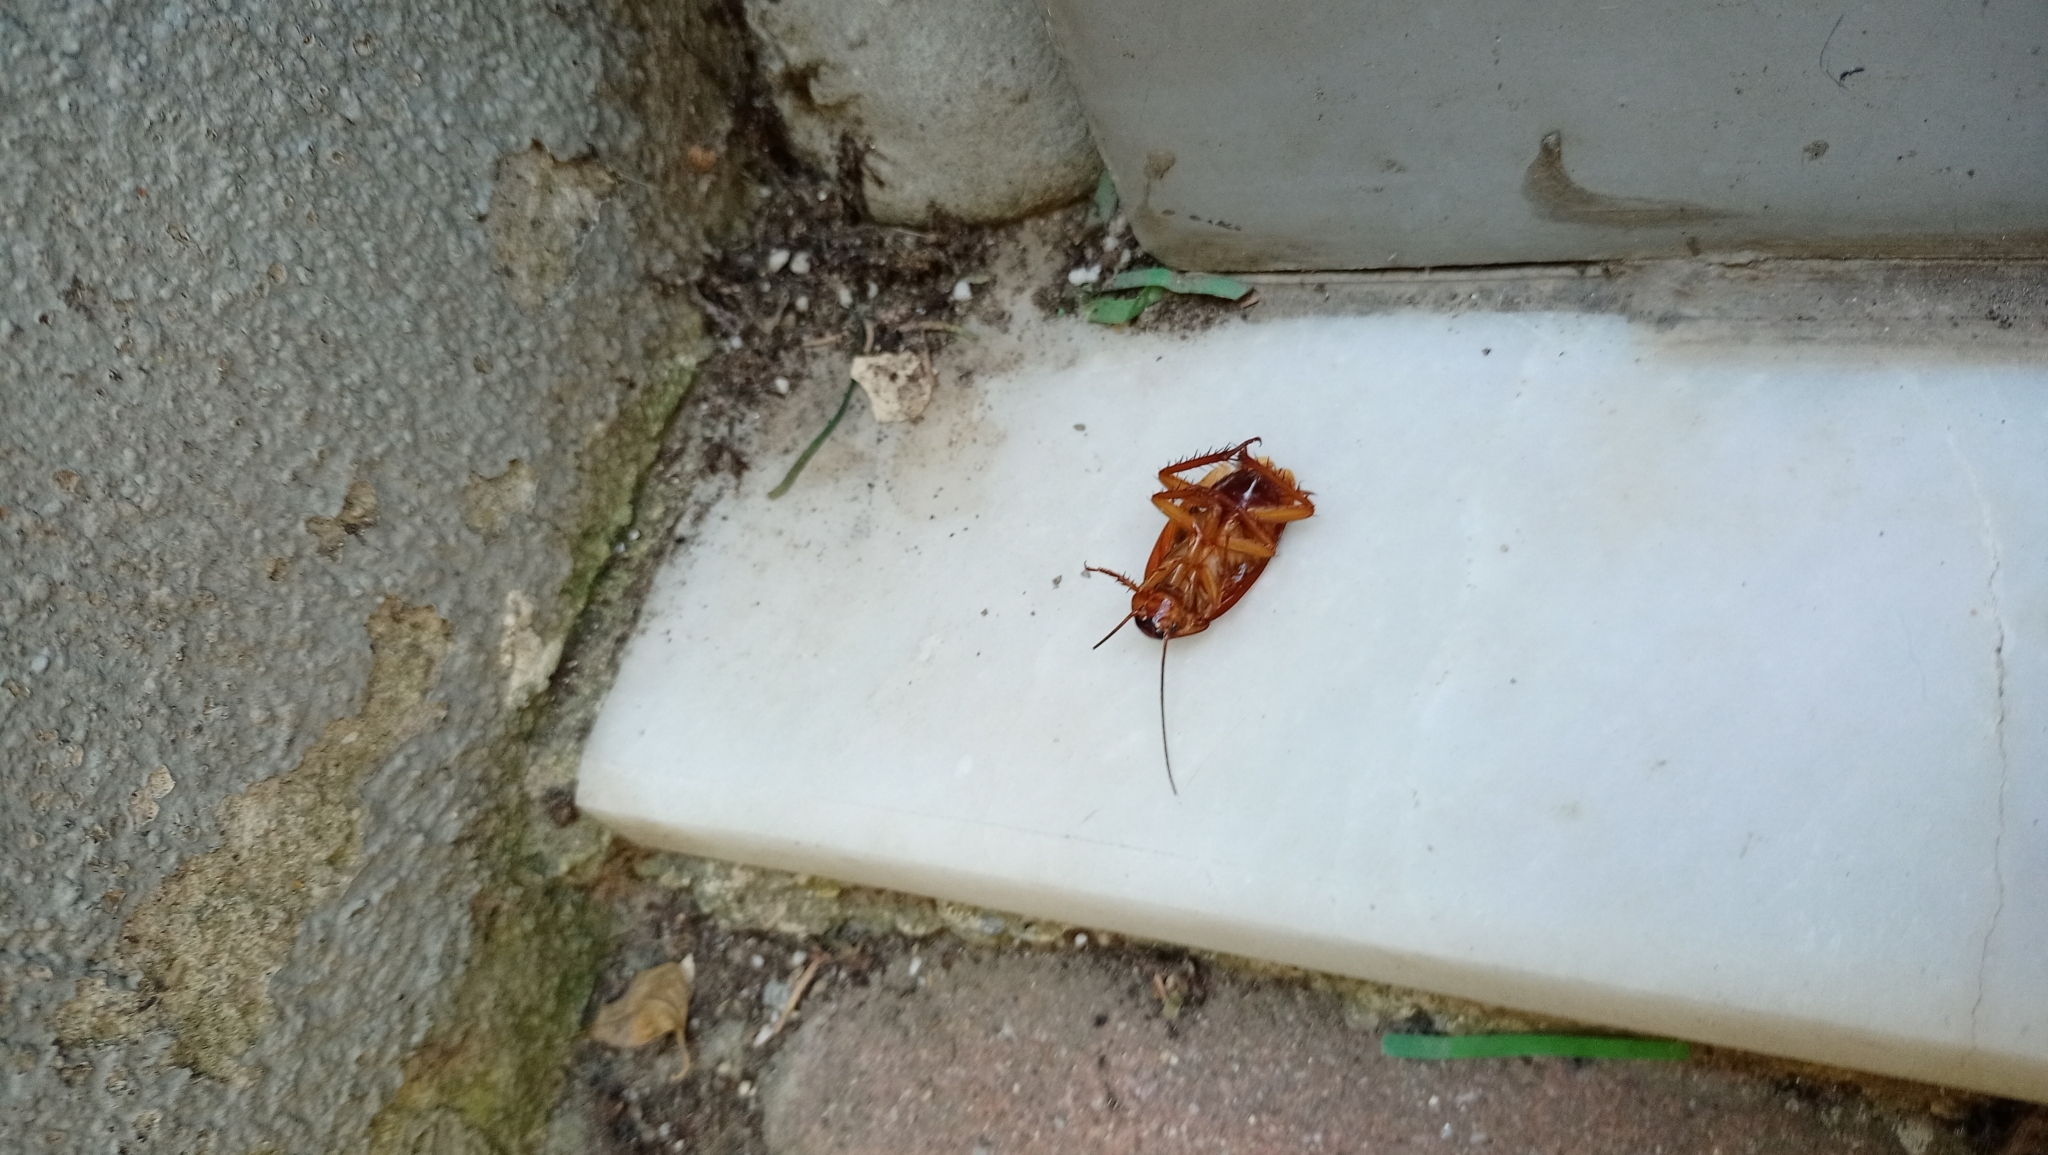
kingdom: Animalia
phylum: Arthropoda
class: Insecta
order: Blattodea
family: Blattidae
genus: Periplaneta
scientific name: Periplaneta americana
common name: American cockroach
